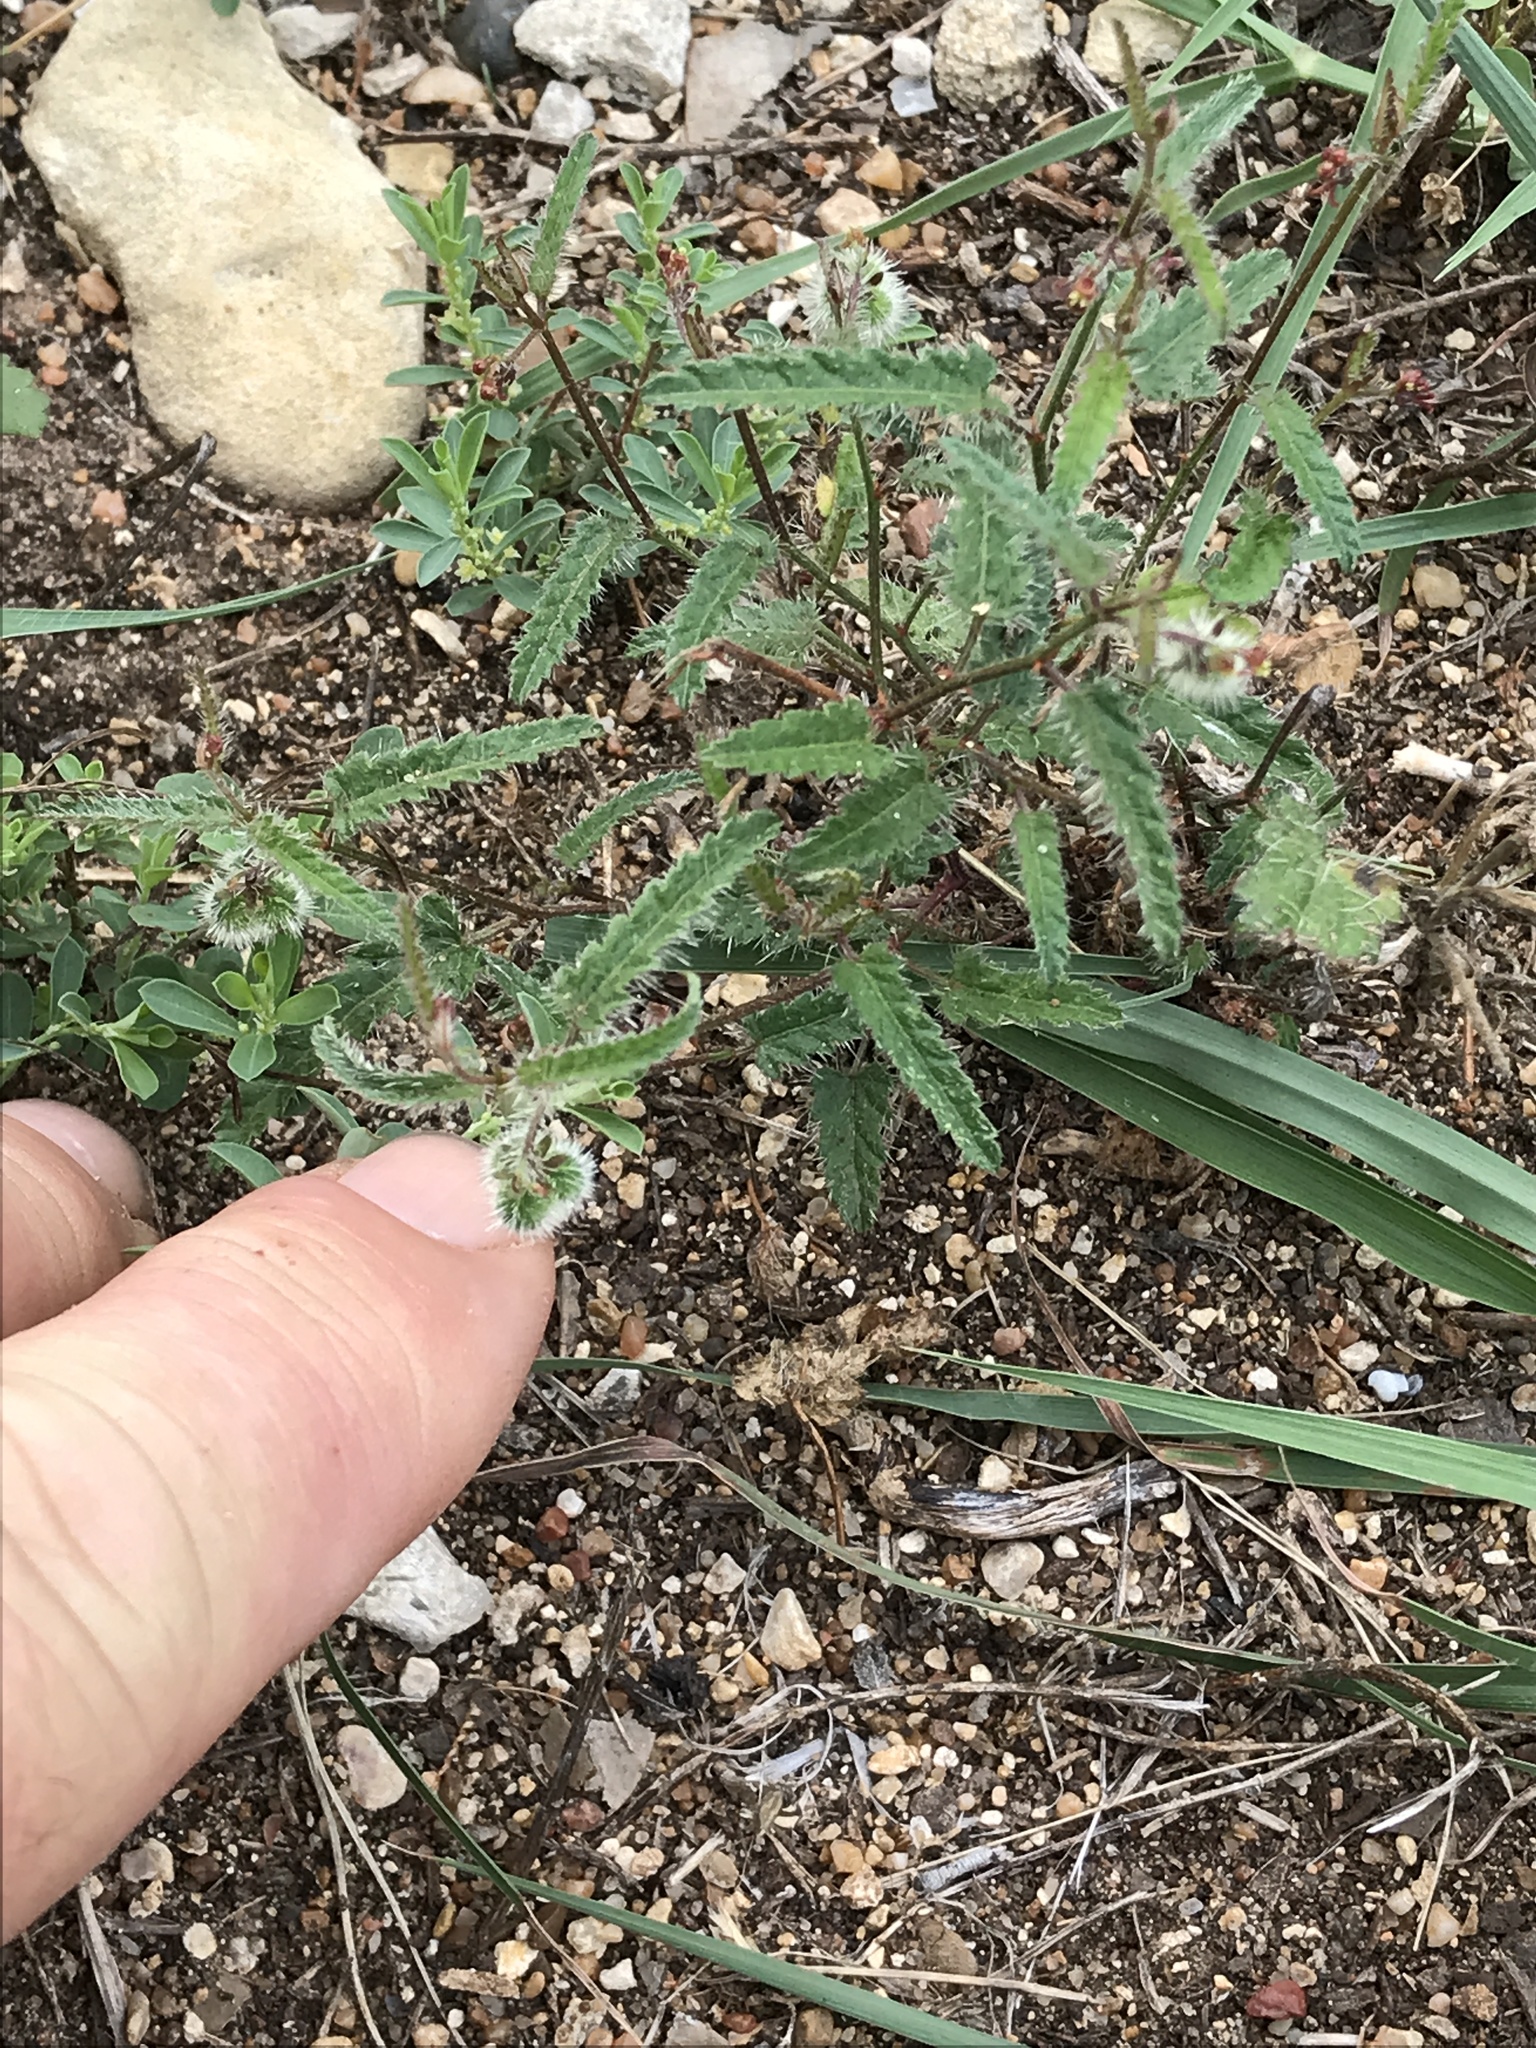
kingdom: Plantae
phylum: Tracheophyta
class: Magnoliopsida
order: Malpighiales
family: Euphorbiaceae
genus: Tragia
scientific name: Tragia ramosa
